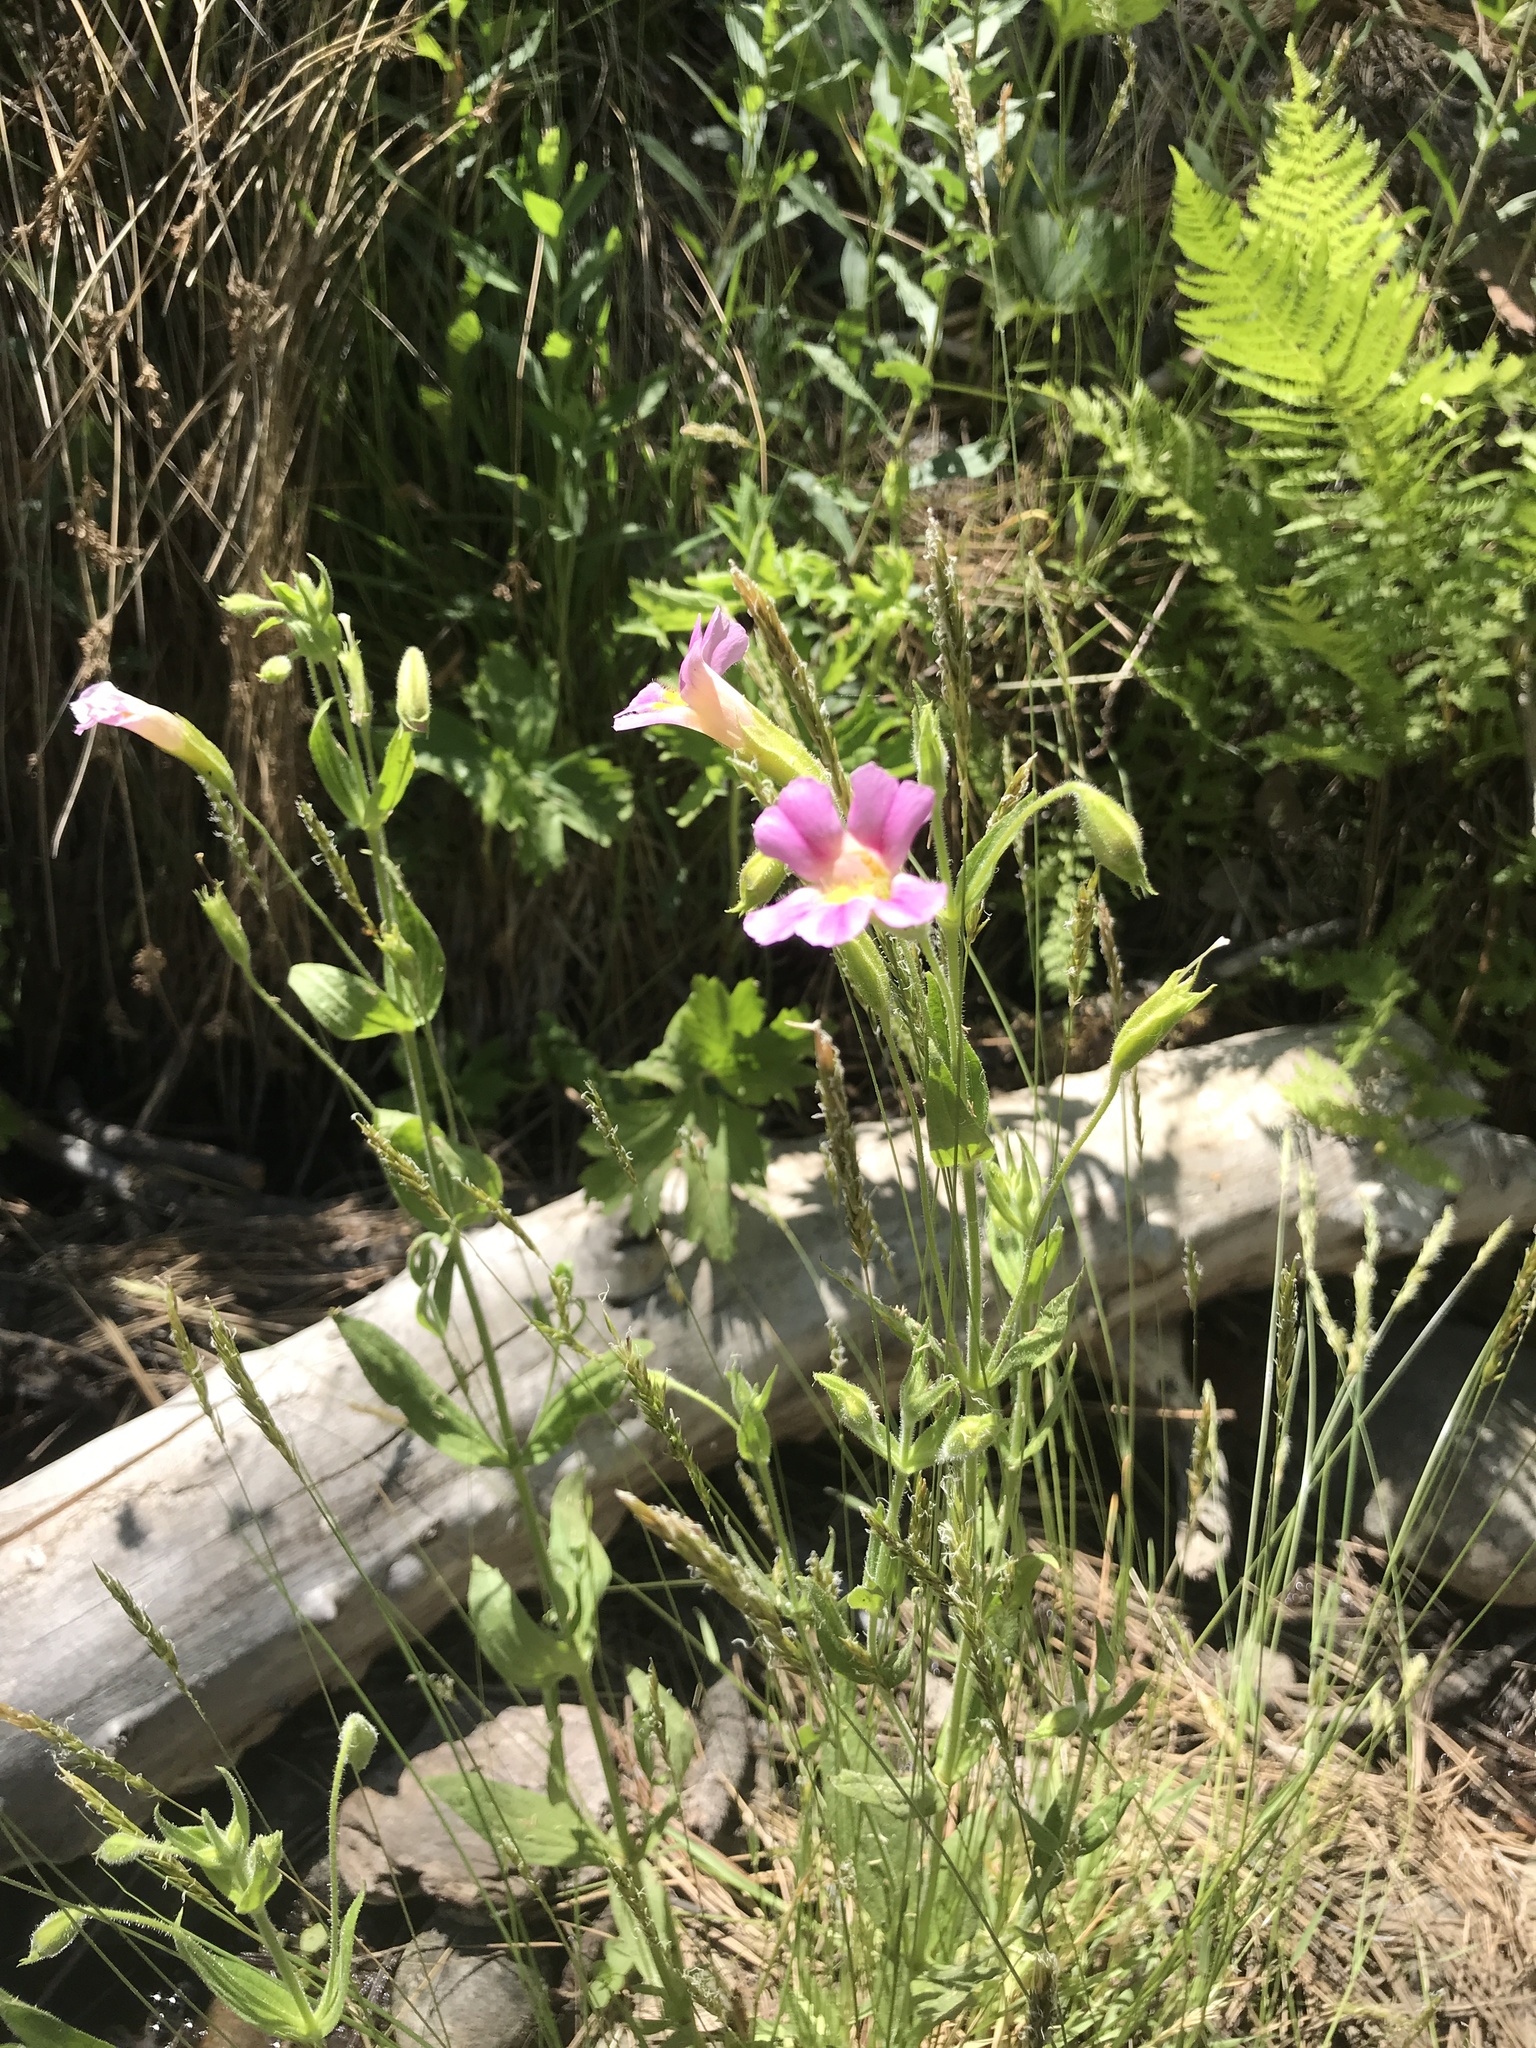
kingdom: Plantae
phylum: Tracheophyta
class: Magnoliopsida
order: Lamiales
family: Phrymaceae
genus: Erythranthe
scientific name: Erythranthe erubescens
